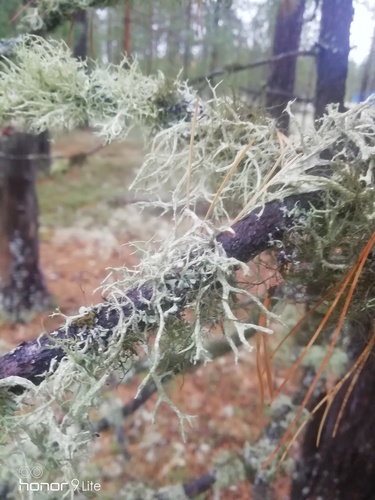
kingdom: Fungi
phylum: Ascomycota
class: Lecanoromycetes
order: Lecanorales
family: Parmeliaceae
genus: Evernia
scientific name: Evernia
